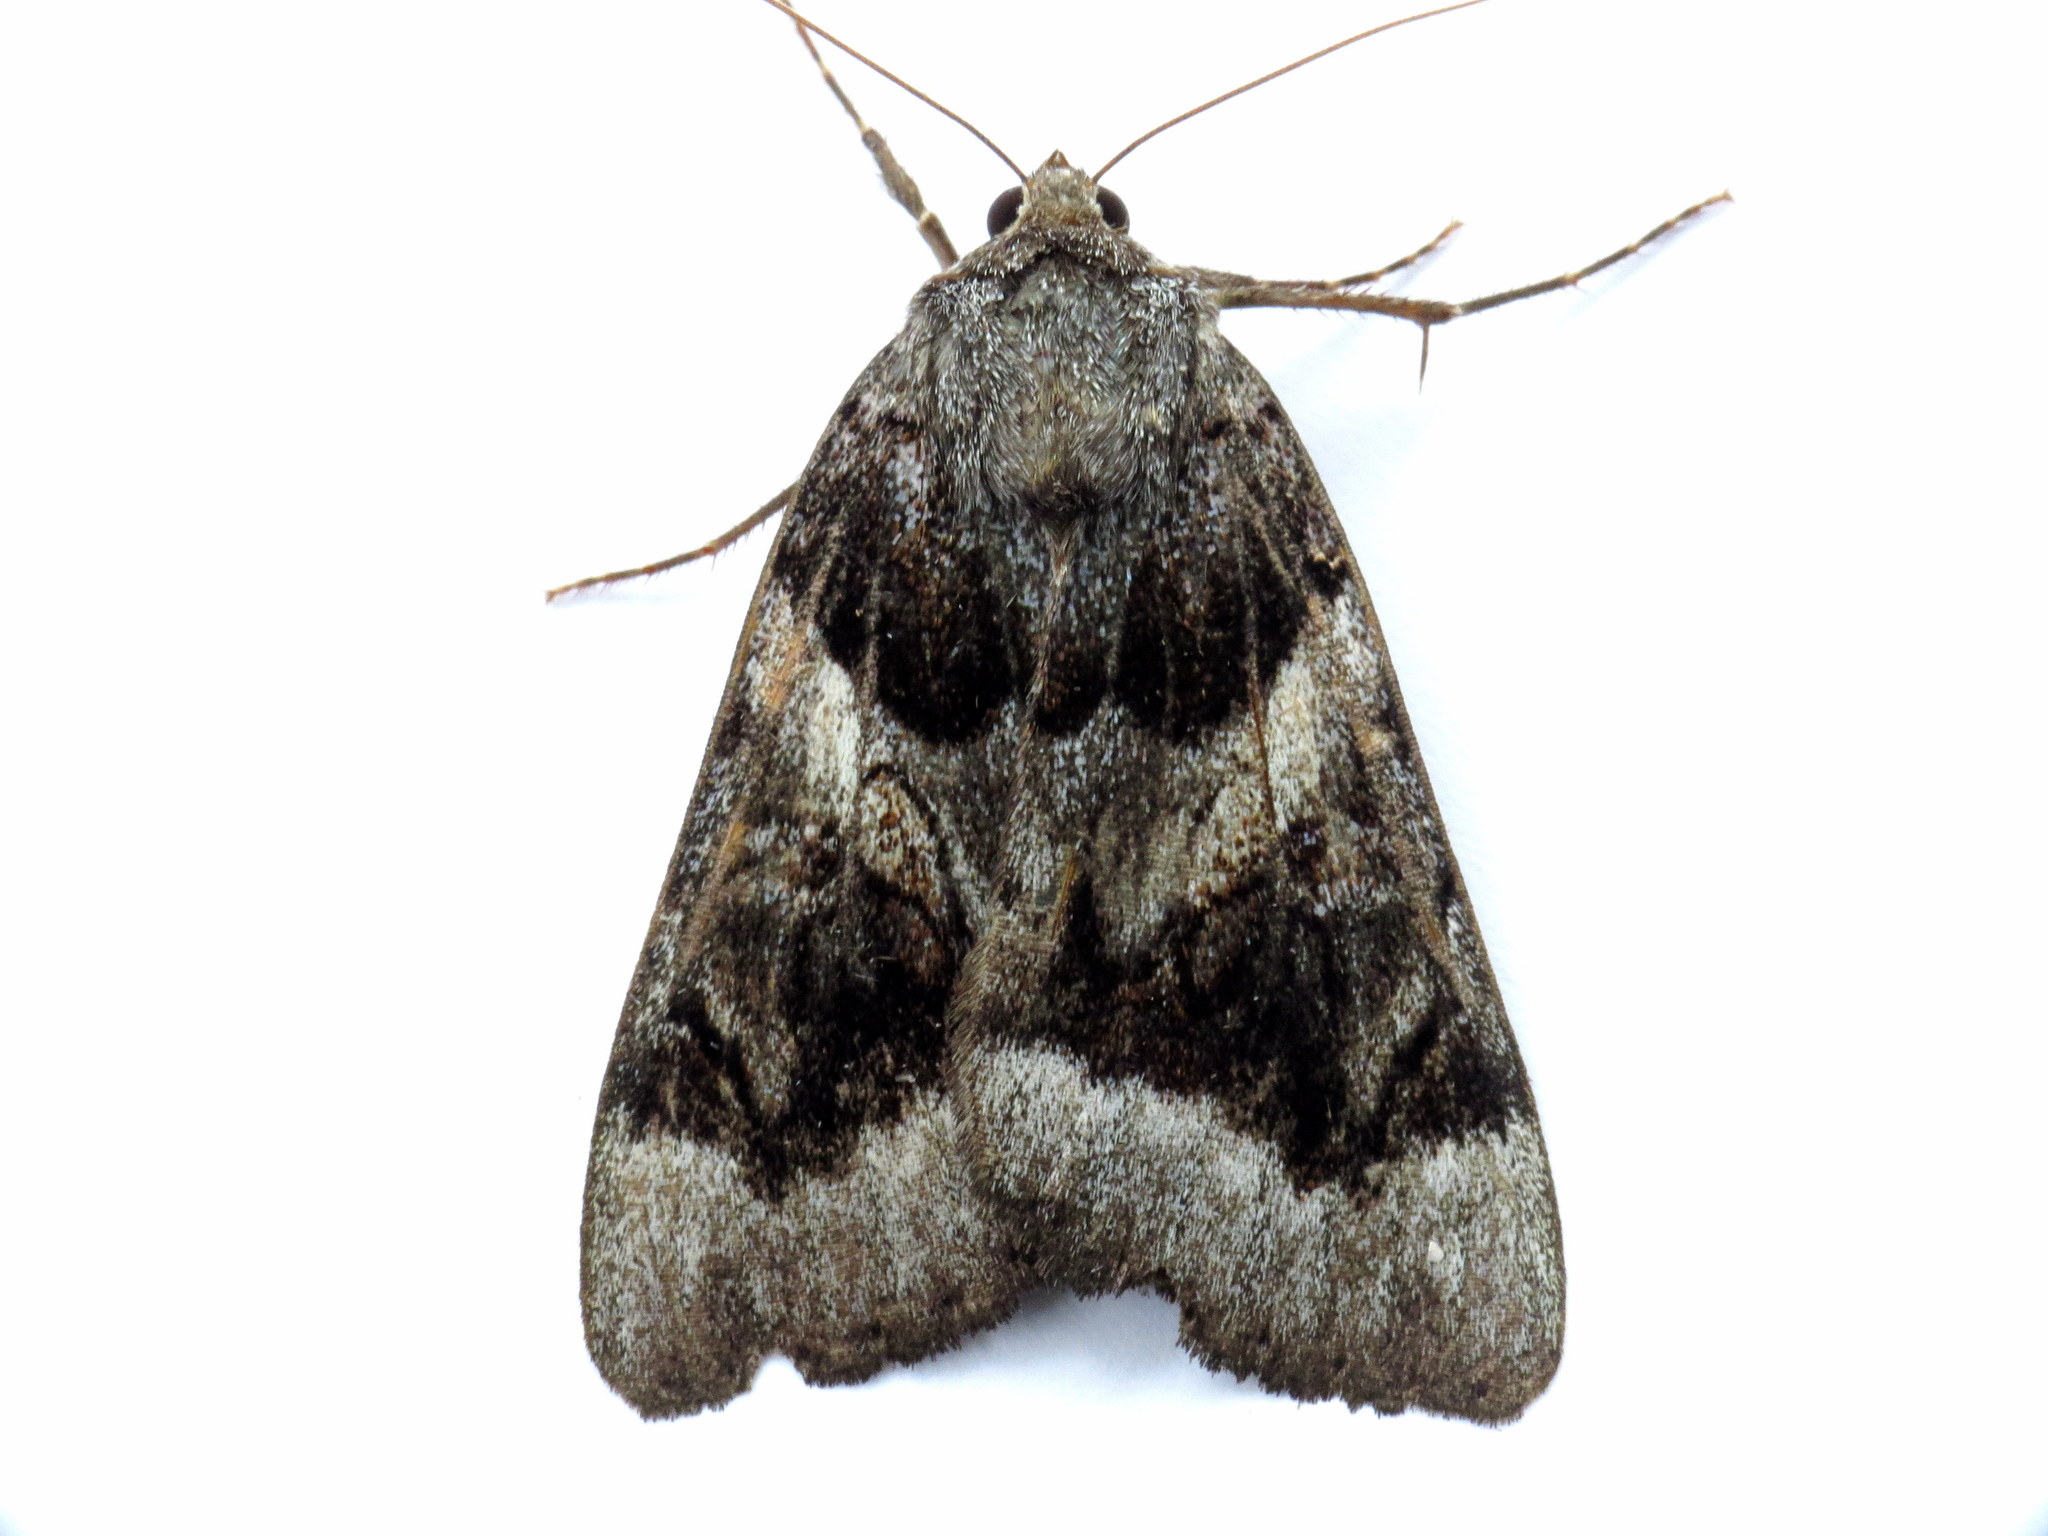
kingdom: Animalia
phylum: Arthropoda
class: Insecta
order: Lepidoptera
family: Erebidae
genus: Catocala
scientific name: Catocala badia
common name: Bay underwing
